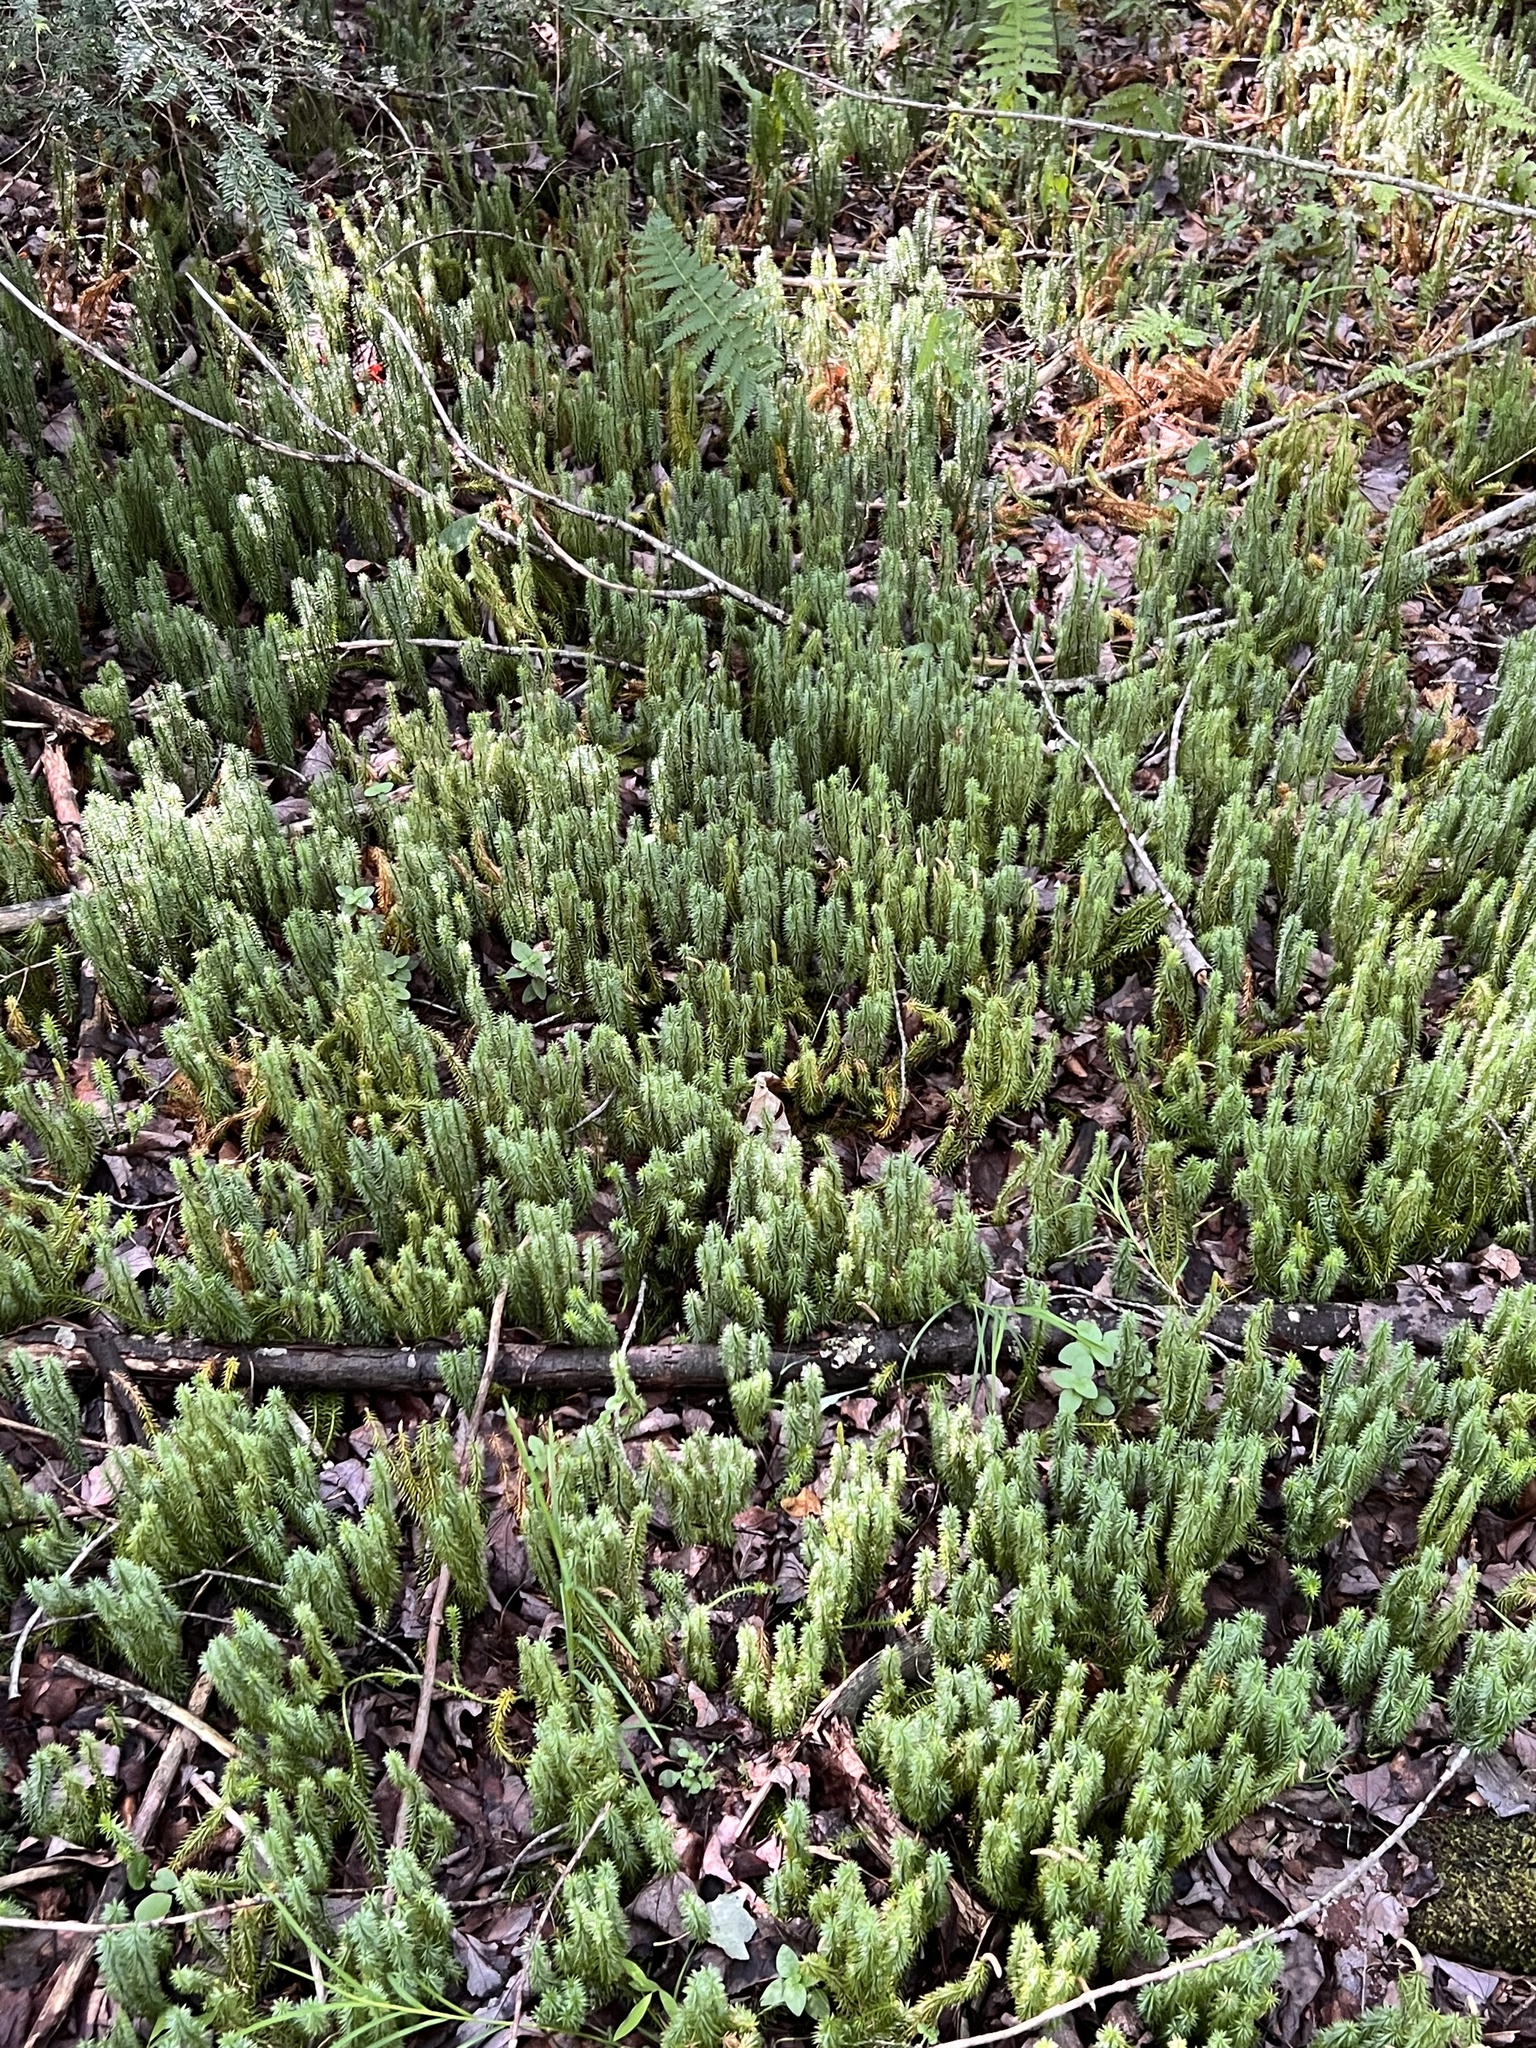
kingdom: Plantae
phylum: Tracheophyta
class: Lycopodiopsida
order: Lycopodiales
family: Lycopodiaceae
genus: Spinulum
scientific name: Spinulum annotinum
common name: Interrupted club-moss
